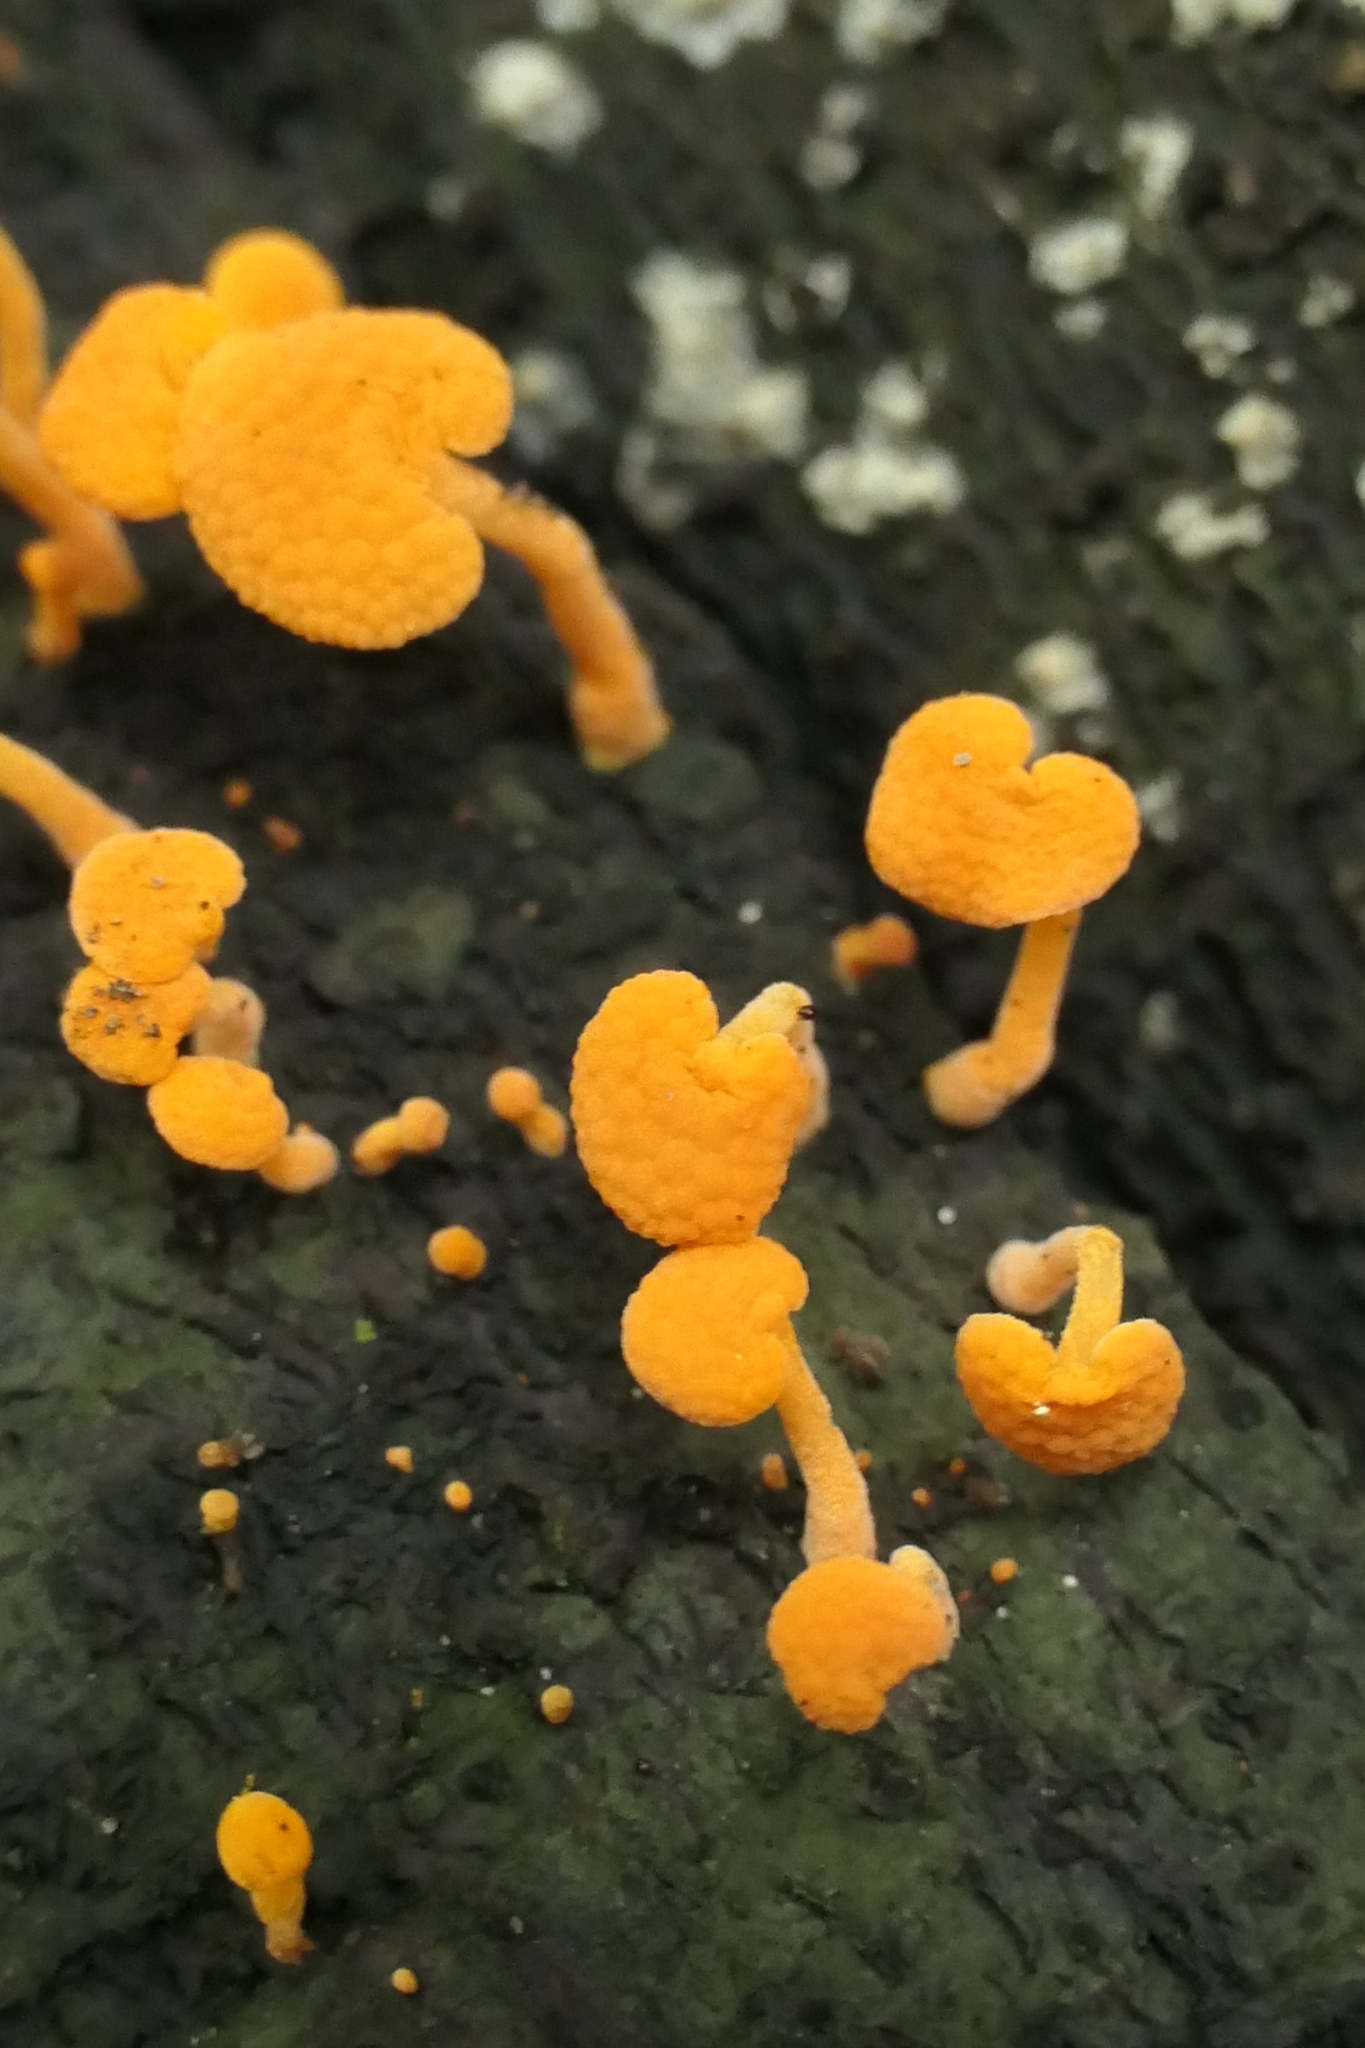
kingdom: Fungi
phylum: Basidiomycota
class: Agaricomycetes
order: Agaricales
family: Mycenaceae
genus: Favolaschia
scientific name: Favolaschia claudopus
